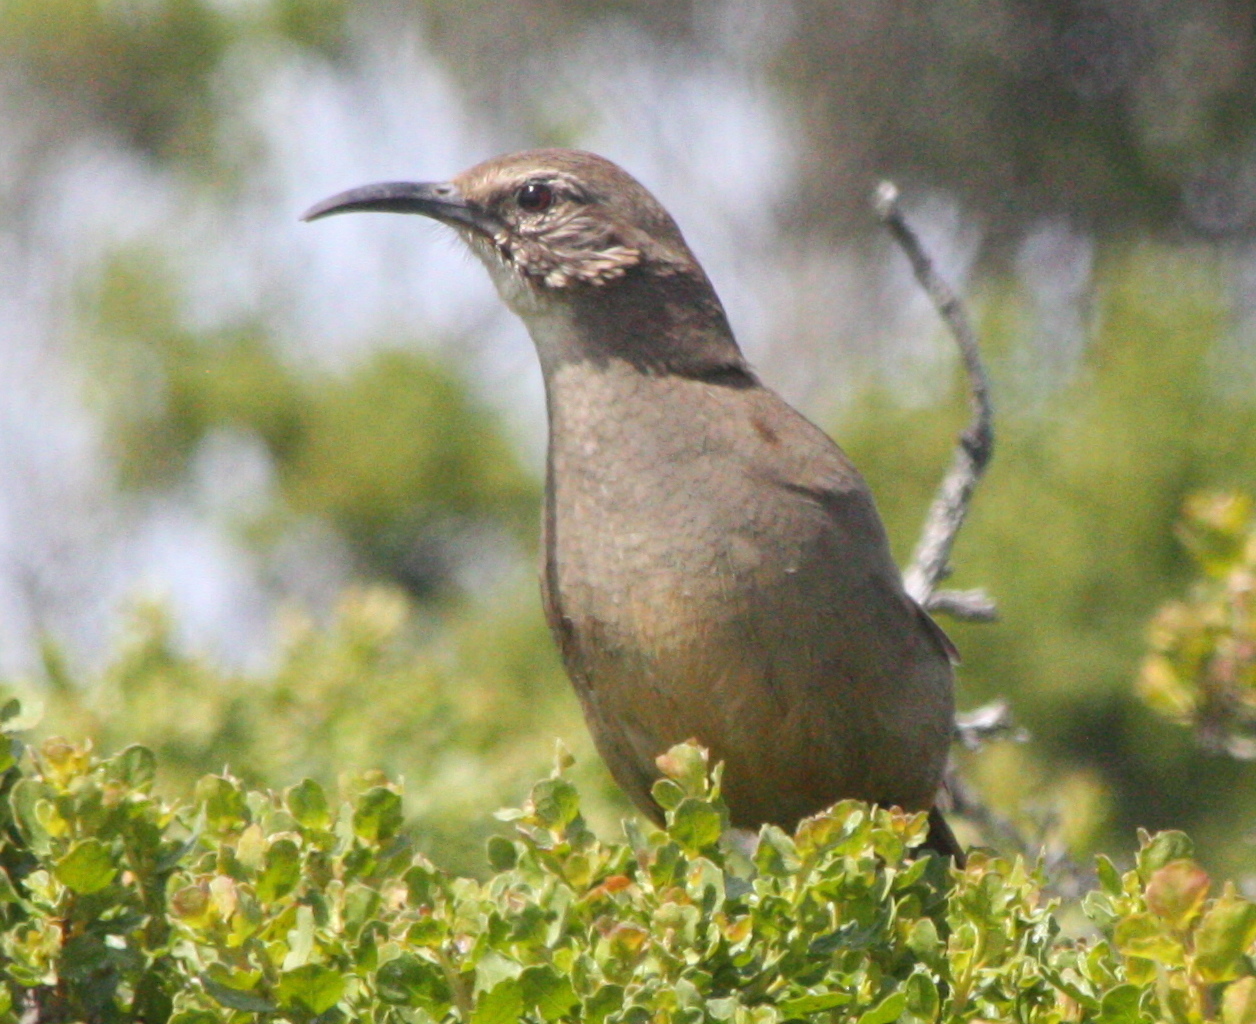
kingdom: Animalia
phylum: Chordata
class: Aves
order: Passeriformes
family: Mimidae
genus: Toxostoma
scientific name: Toxostoma redivivum
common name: California thrasher
